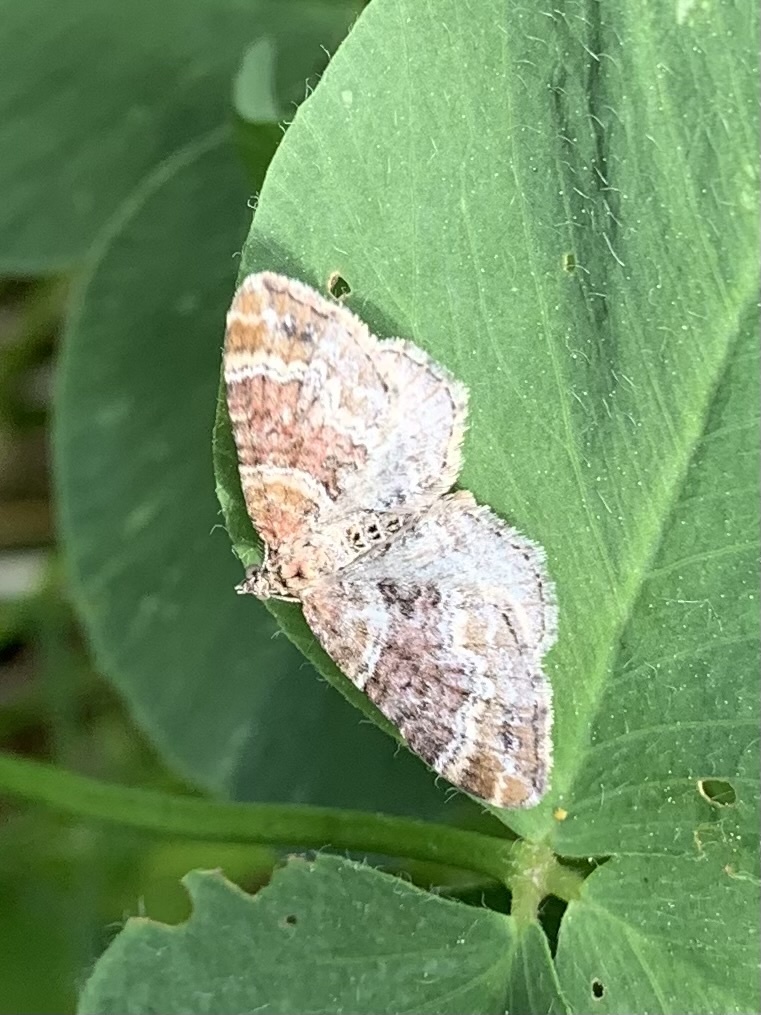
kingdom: Animalia
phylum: Arthropoda
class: Insecta
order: Lepidoptera
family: Geometridae
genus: Xanthorhoe
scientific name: Xanthorhoe spadicearia
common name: Red twin-spot carpet
